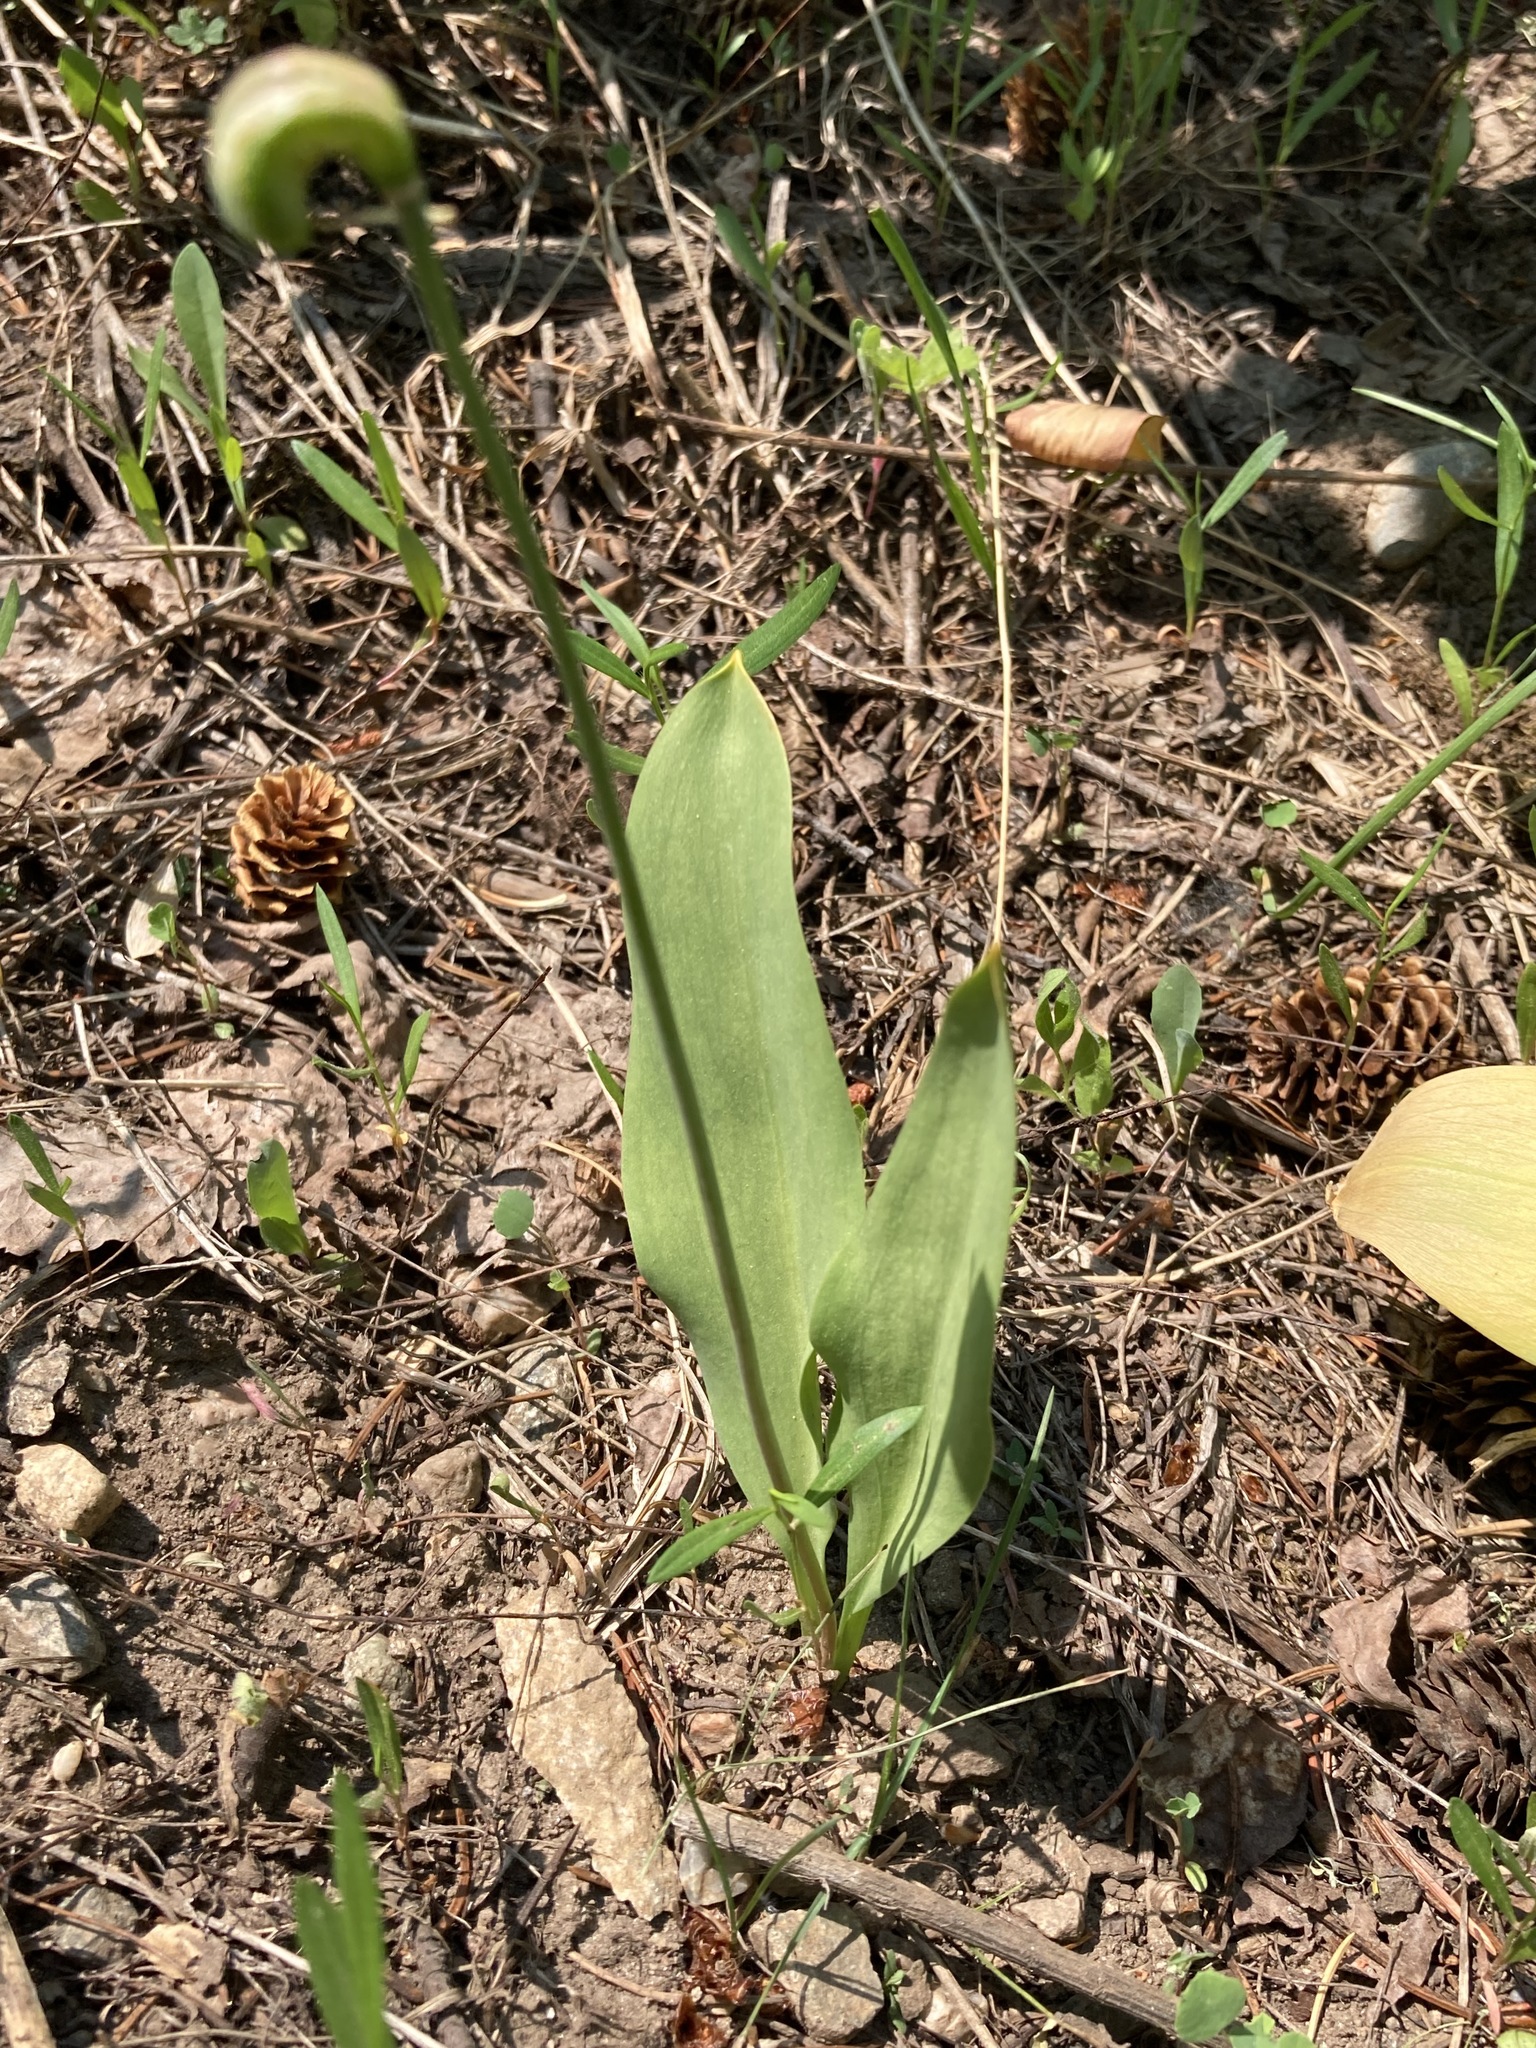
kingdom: Plantae
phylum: Tracheophyta
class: Liliopsida
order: Liliales
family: Liliaceae
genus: Erythronium
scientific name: Erythronium grandiflorum
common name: Avalanche-lily
